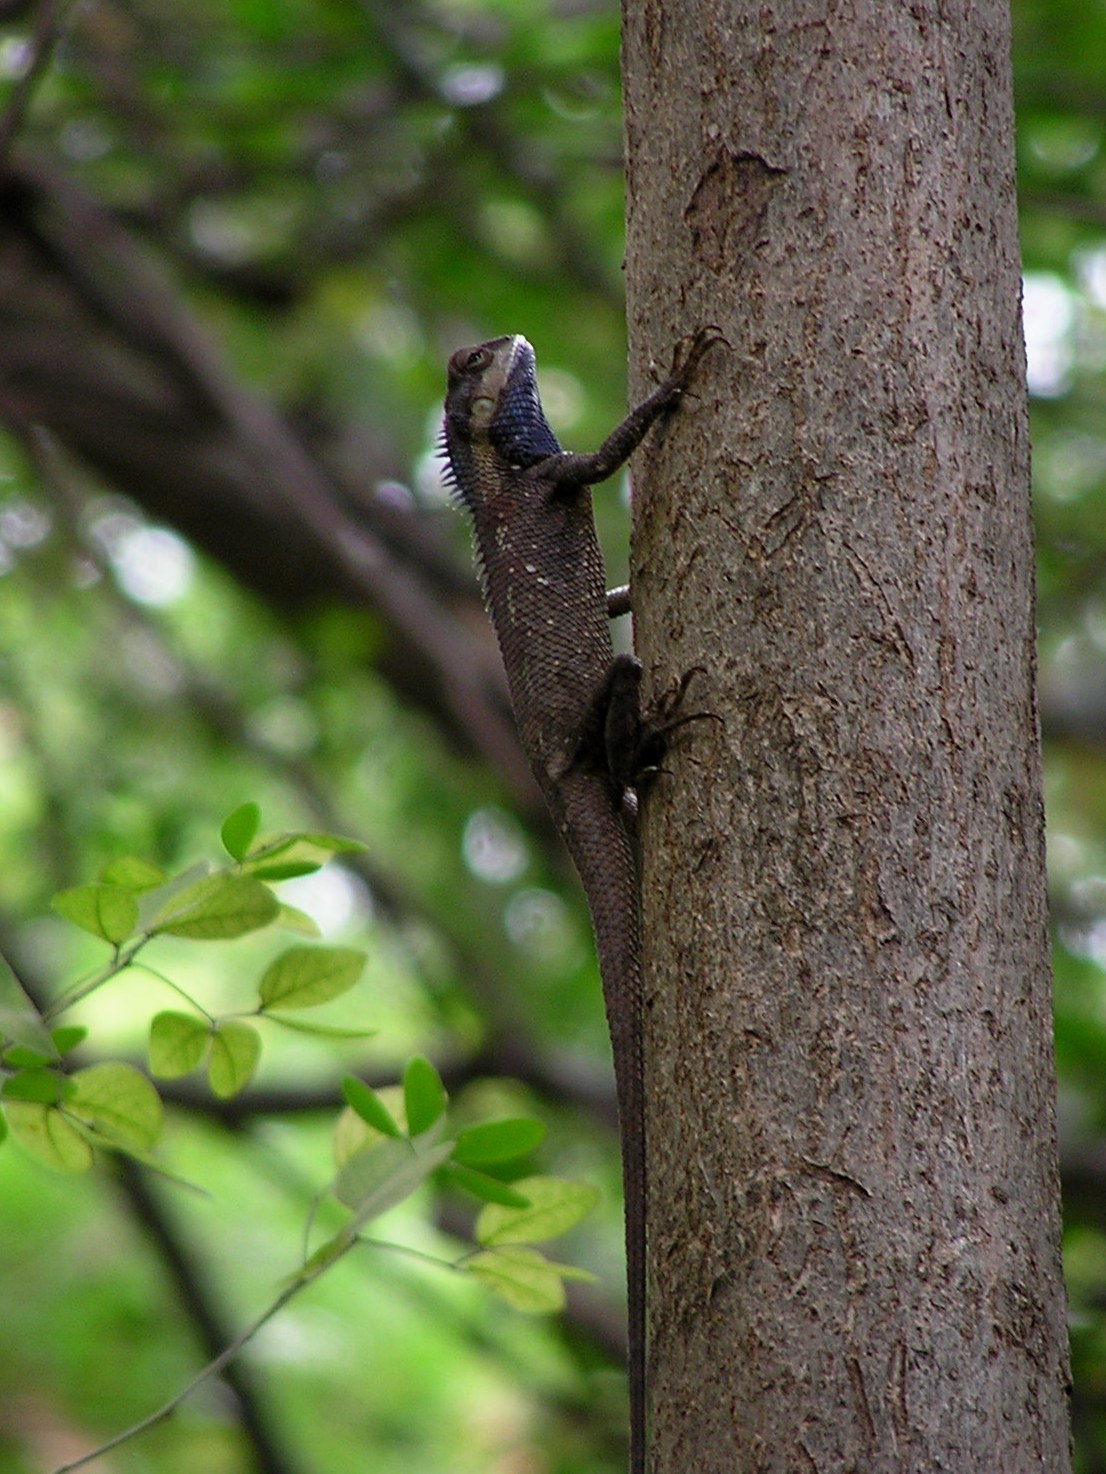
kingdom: Animalia
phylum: Chordata
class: Squamata
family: Agamidae
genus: Calotes
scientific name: Calotes goetzi
